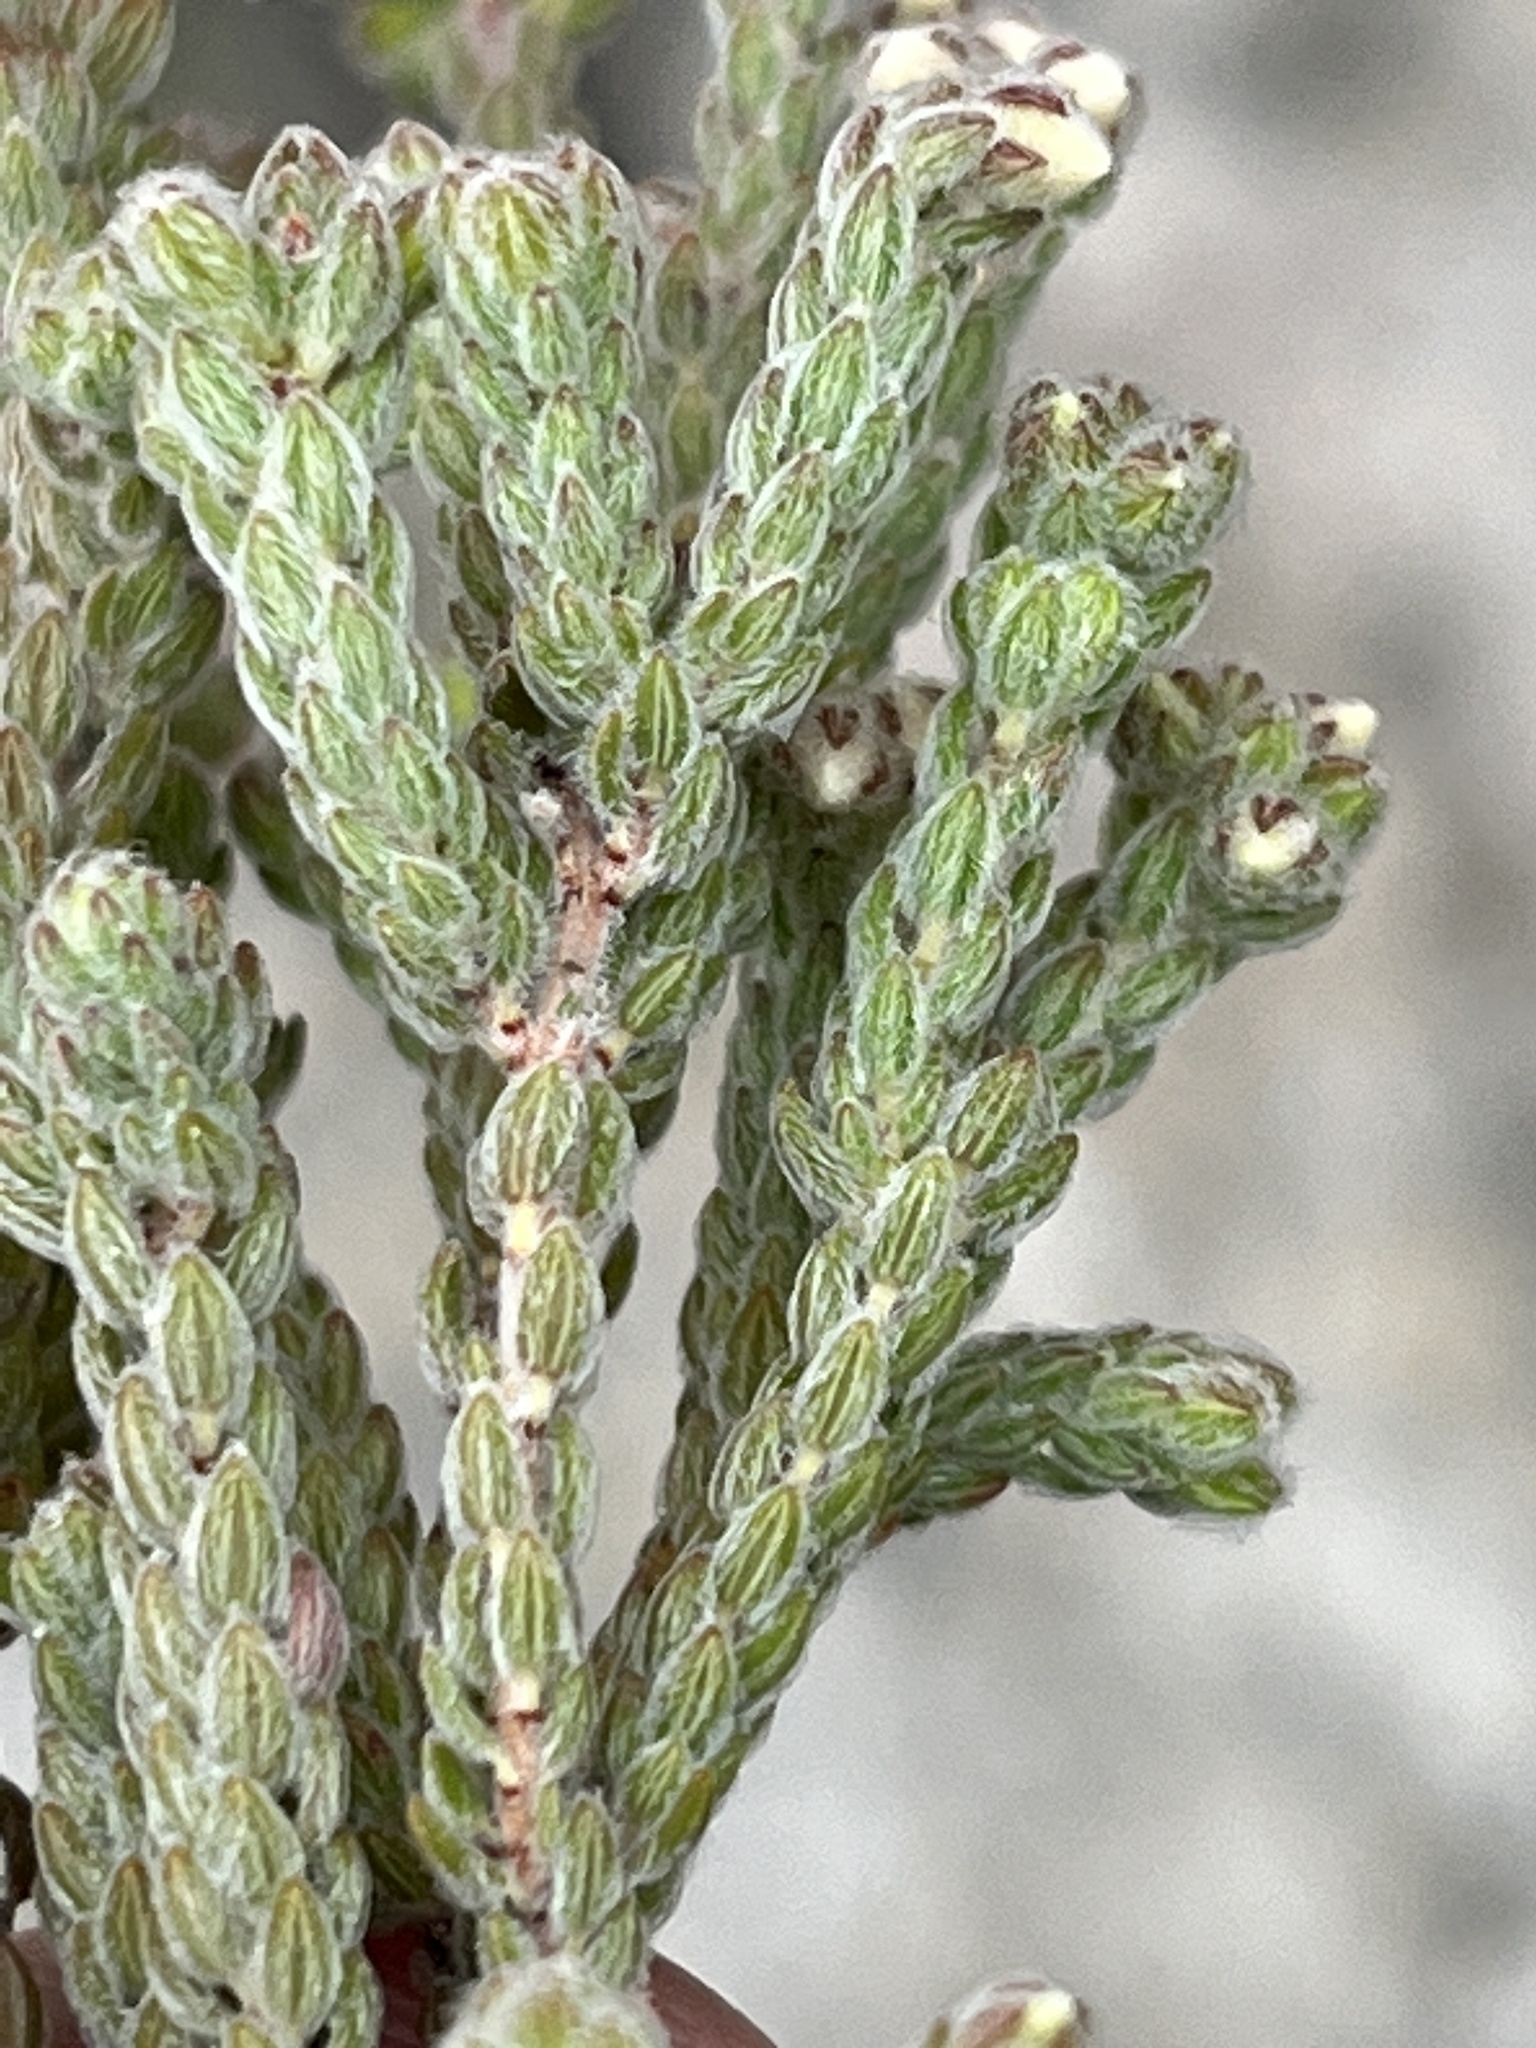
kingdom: Plantae
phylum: Tracheophyta
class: Magnoliopsida
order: Ericales
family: Ericaceae
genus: Erica
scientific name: Erica oreotragus
